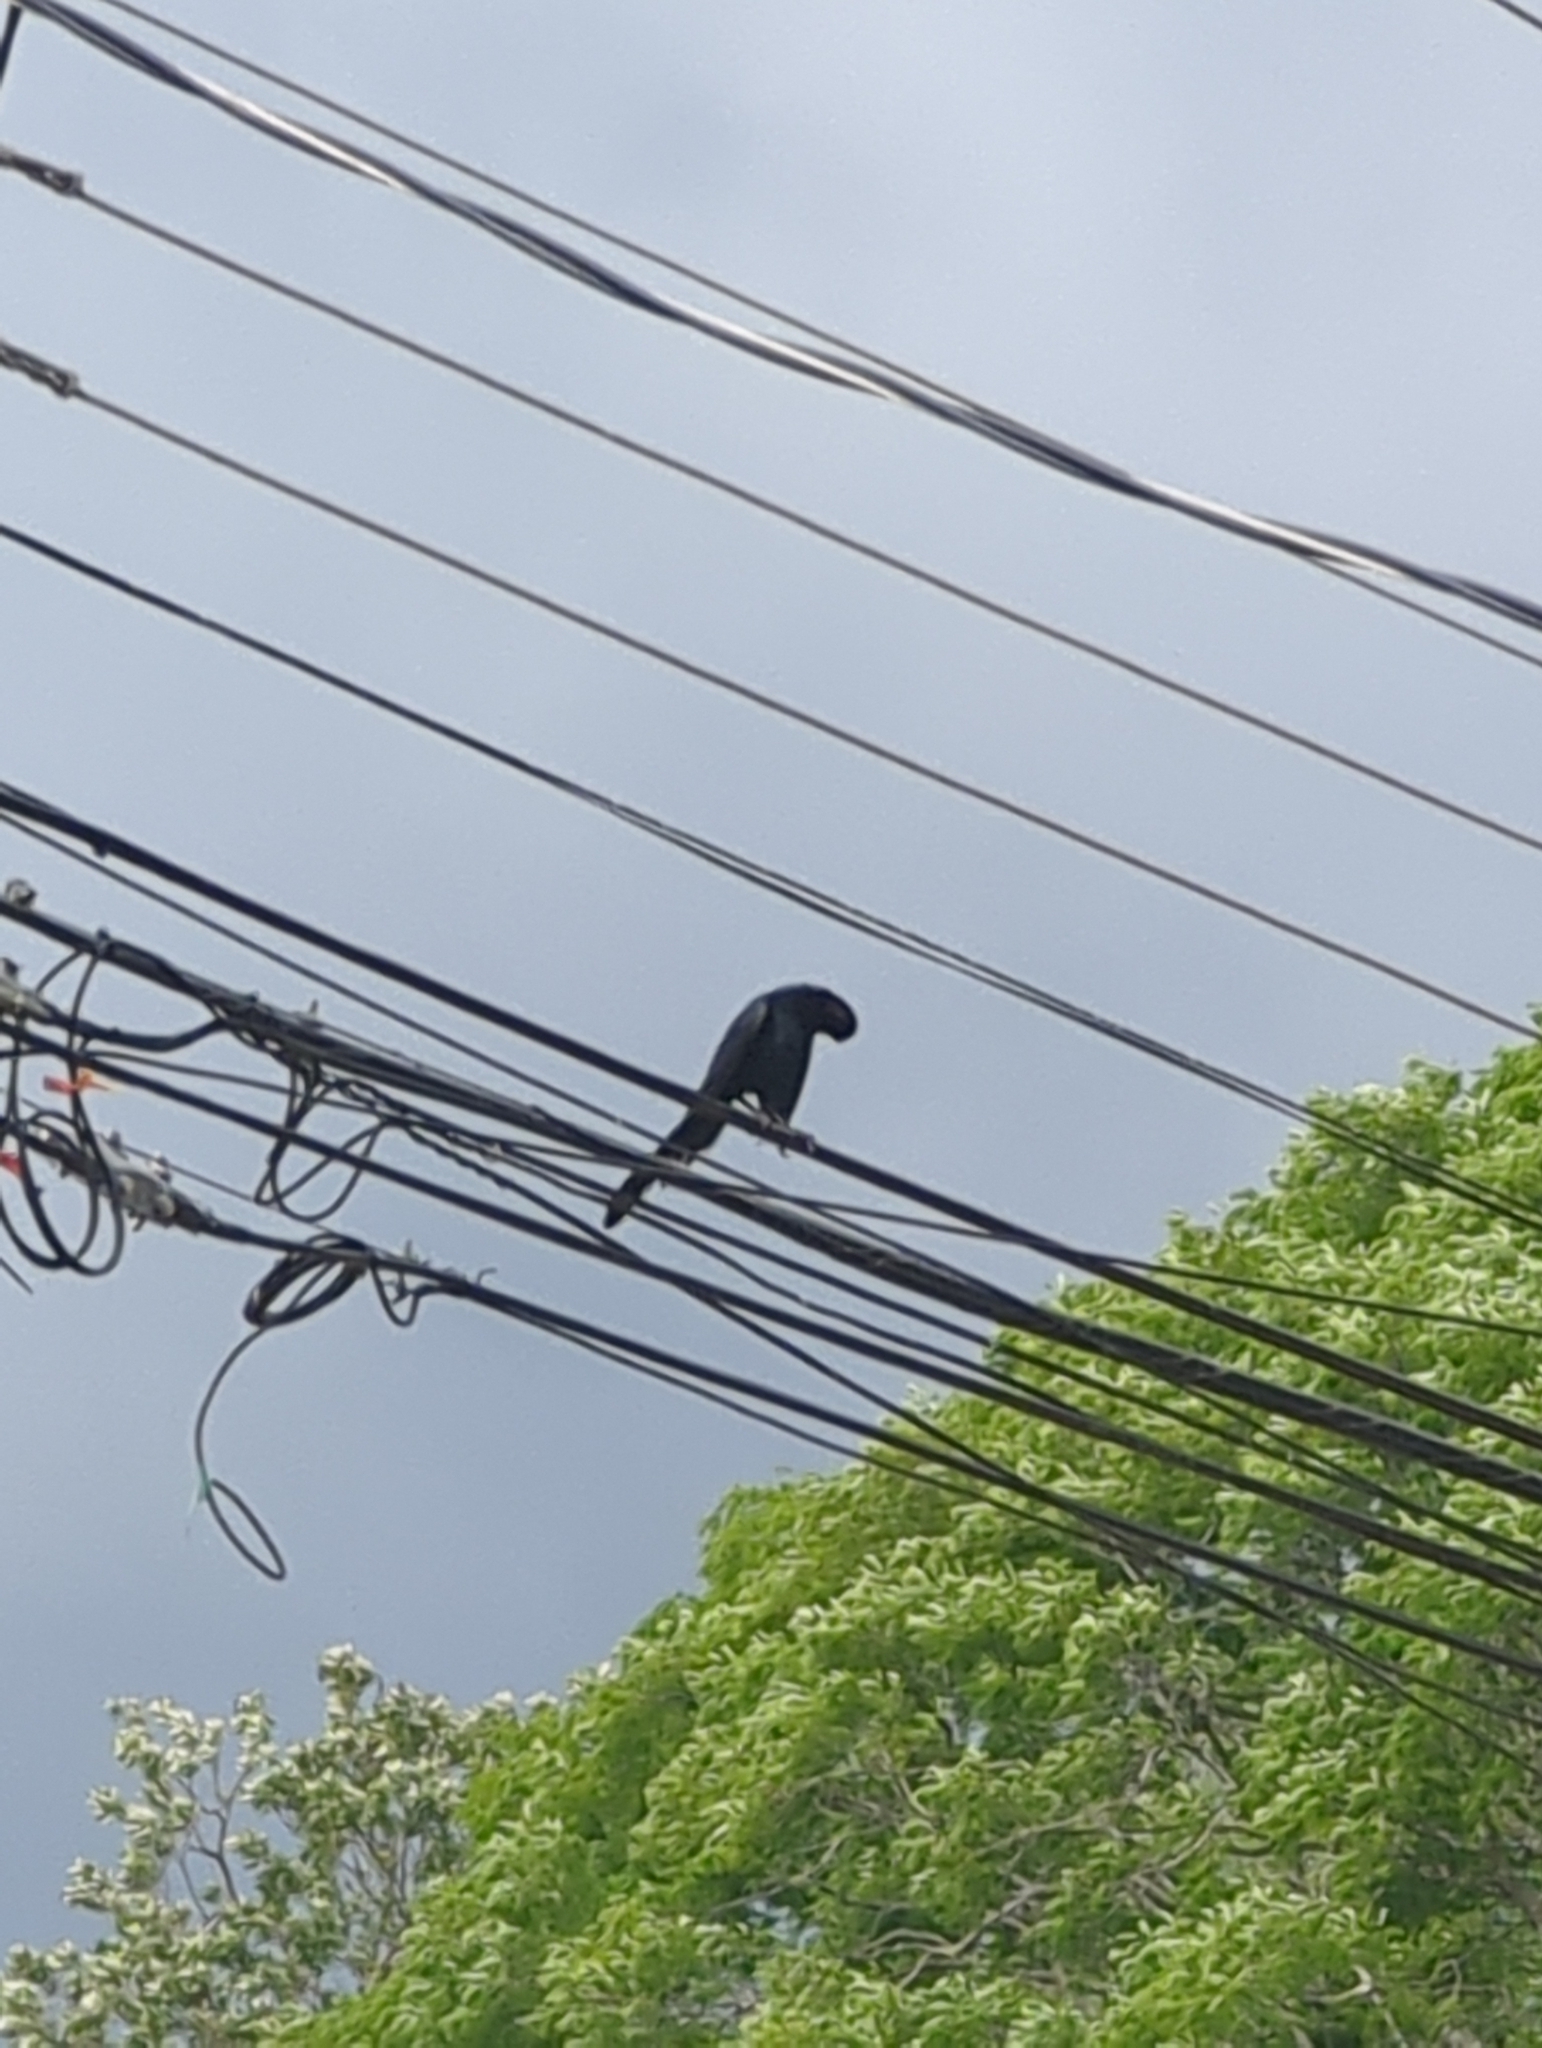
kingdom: Animalia
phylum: Chordata
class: Aves
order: Passeriformes
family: Icteridae
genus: Quiscalus
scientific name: Quiscalus mexicanus
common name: Great-tailed grackle
